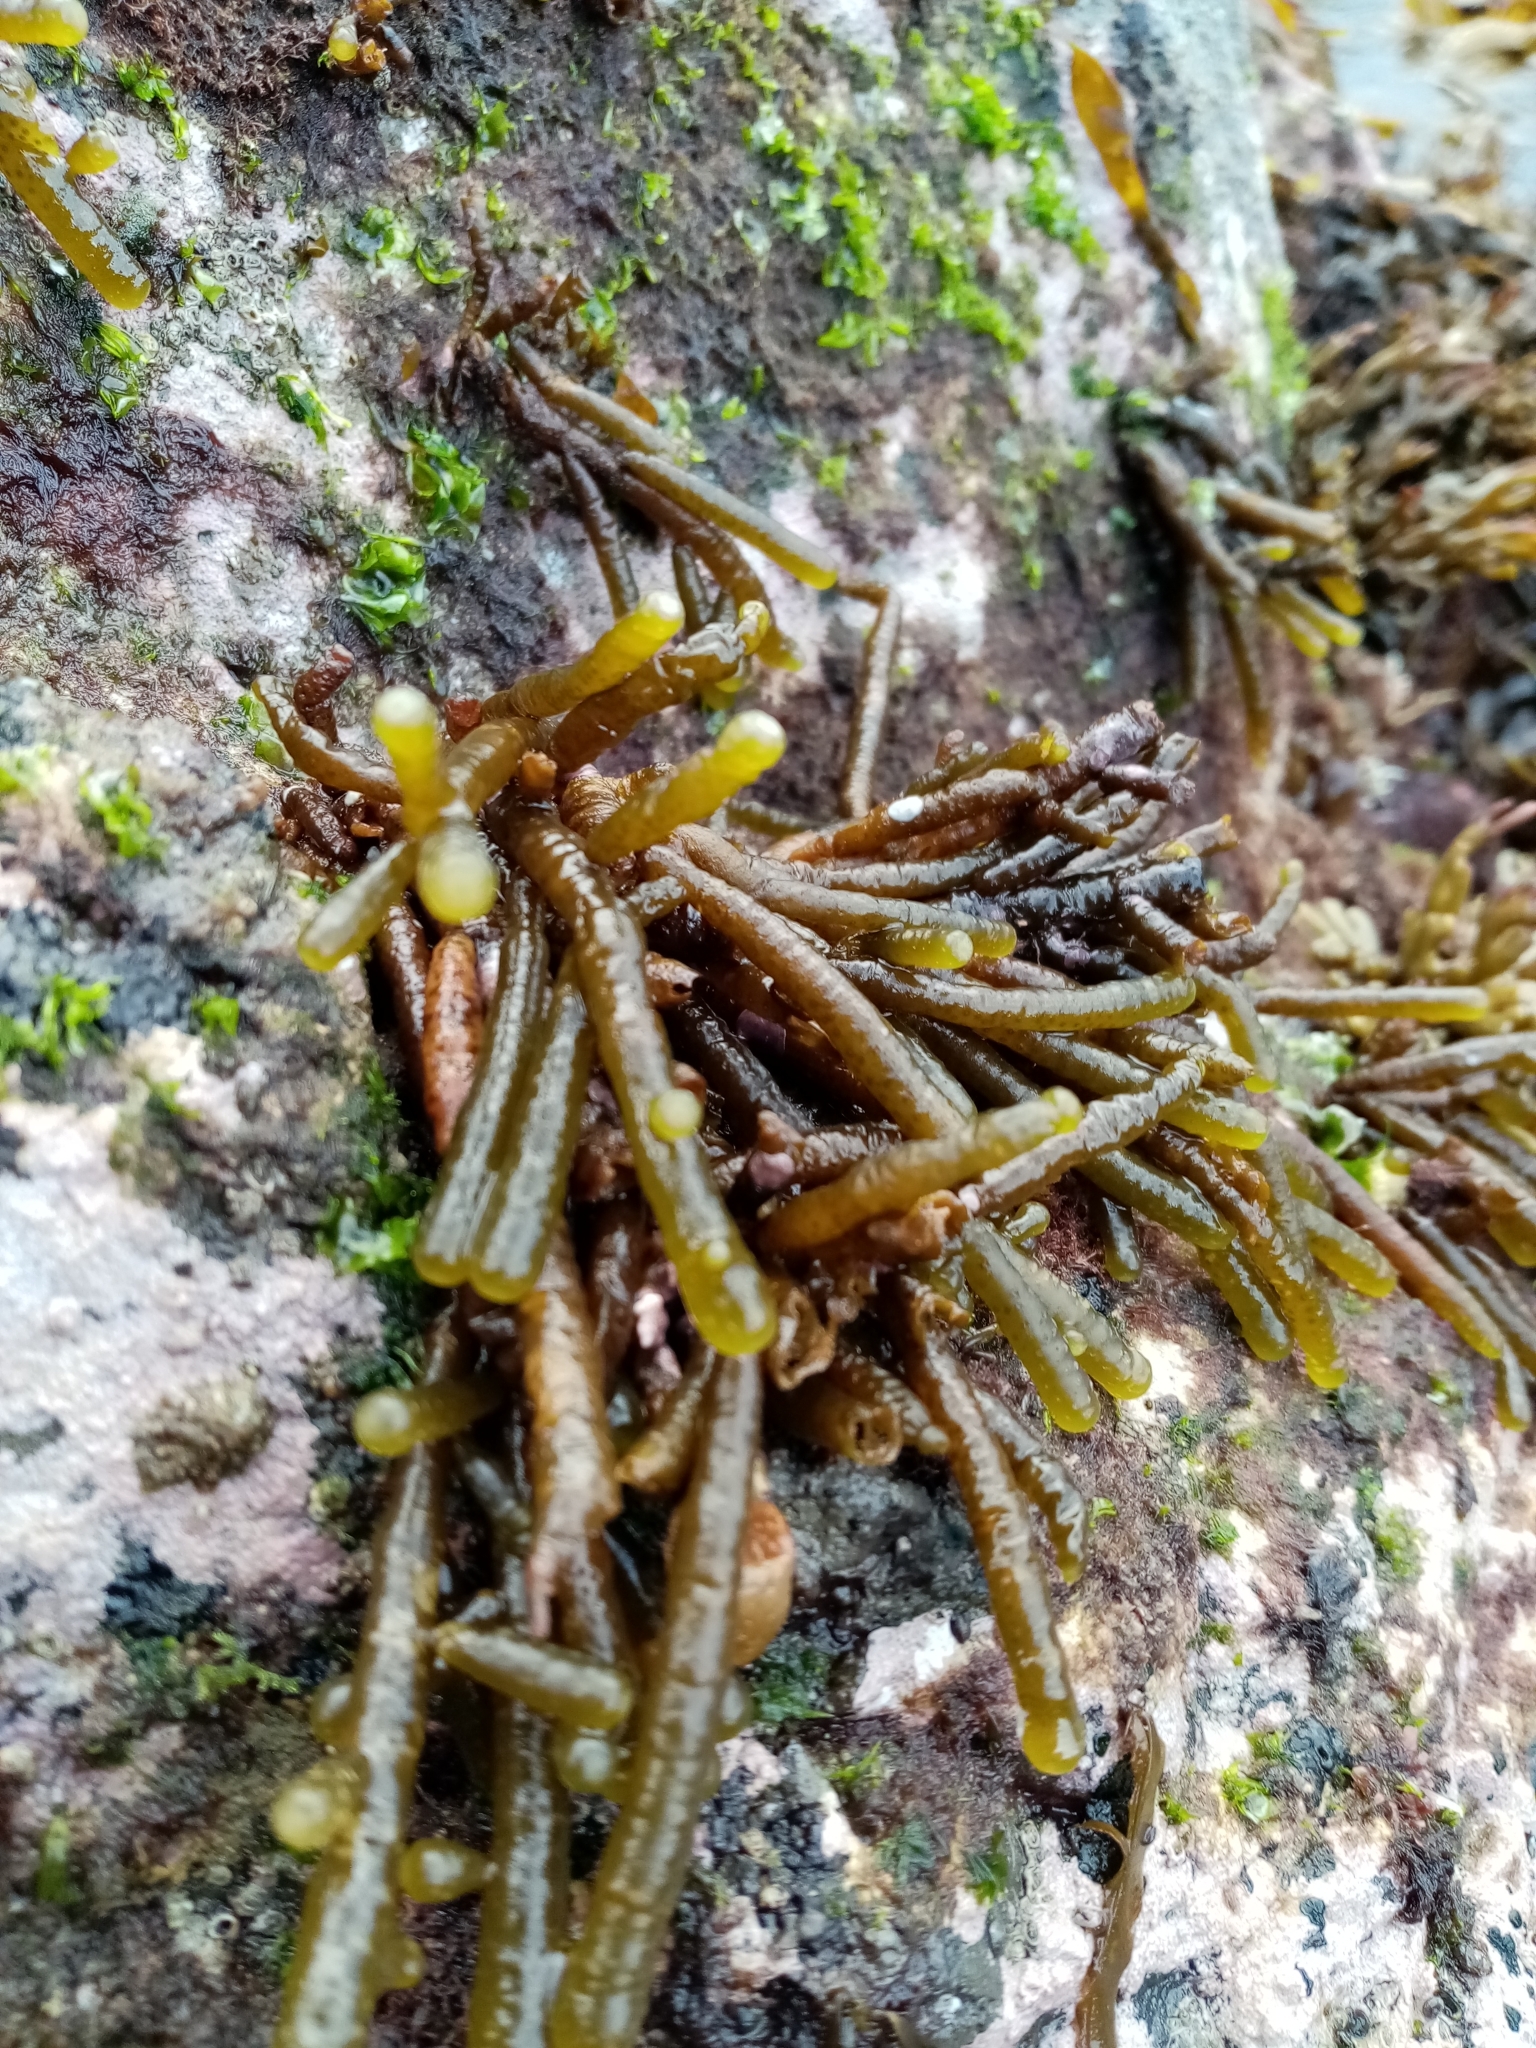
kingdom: Chromista
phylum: Ochrophyta
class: Phaeophyceae
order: Scytothamnales
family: Splachnidiaceae
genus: Splachnidium
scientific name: Splachnidium rugosum
